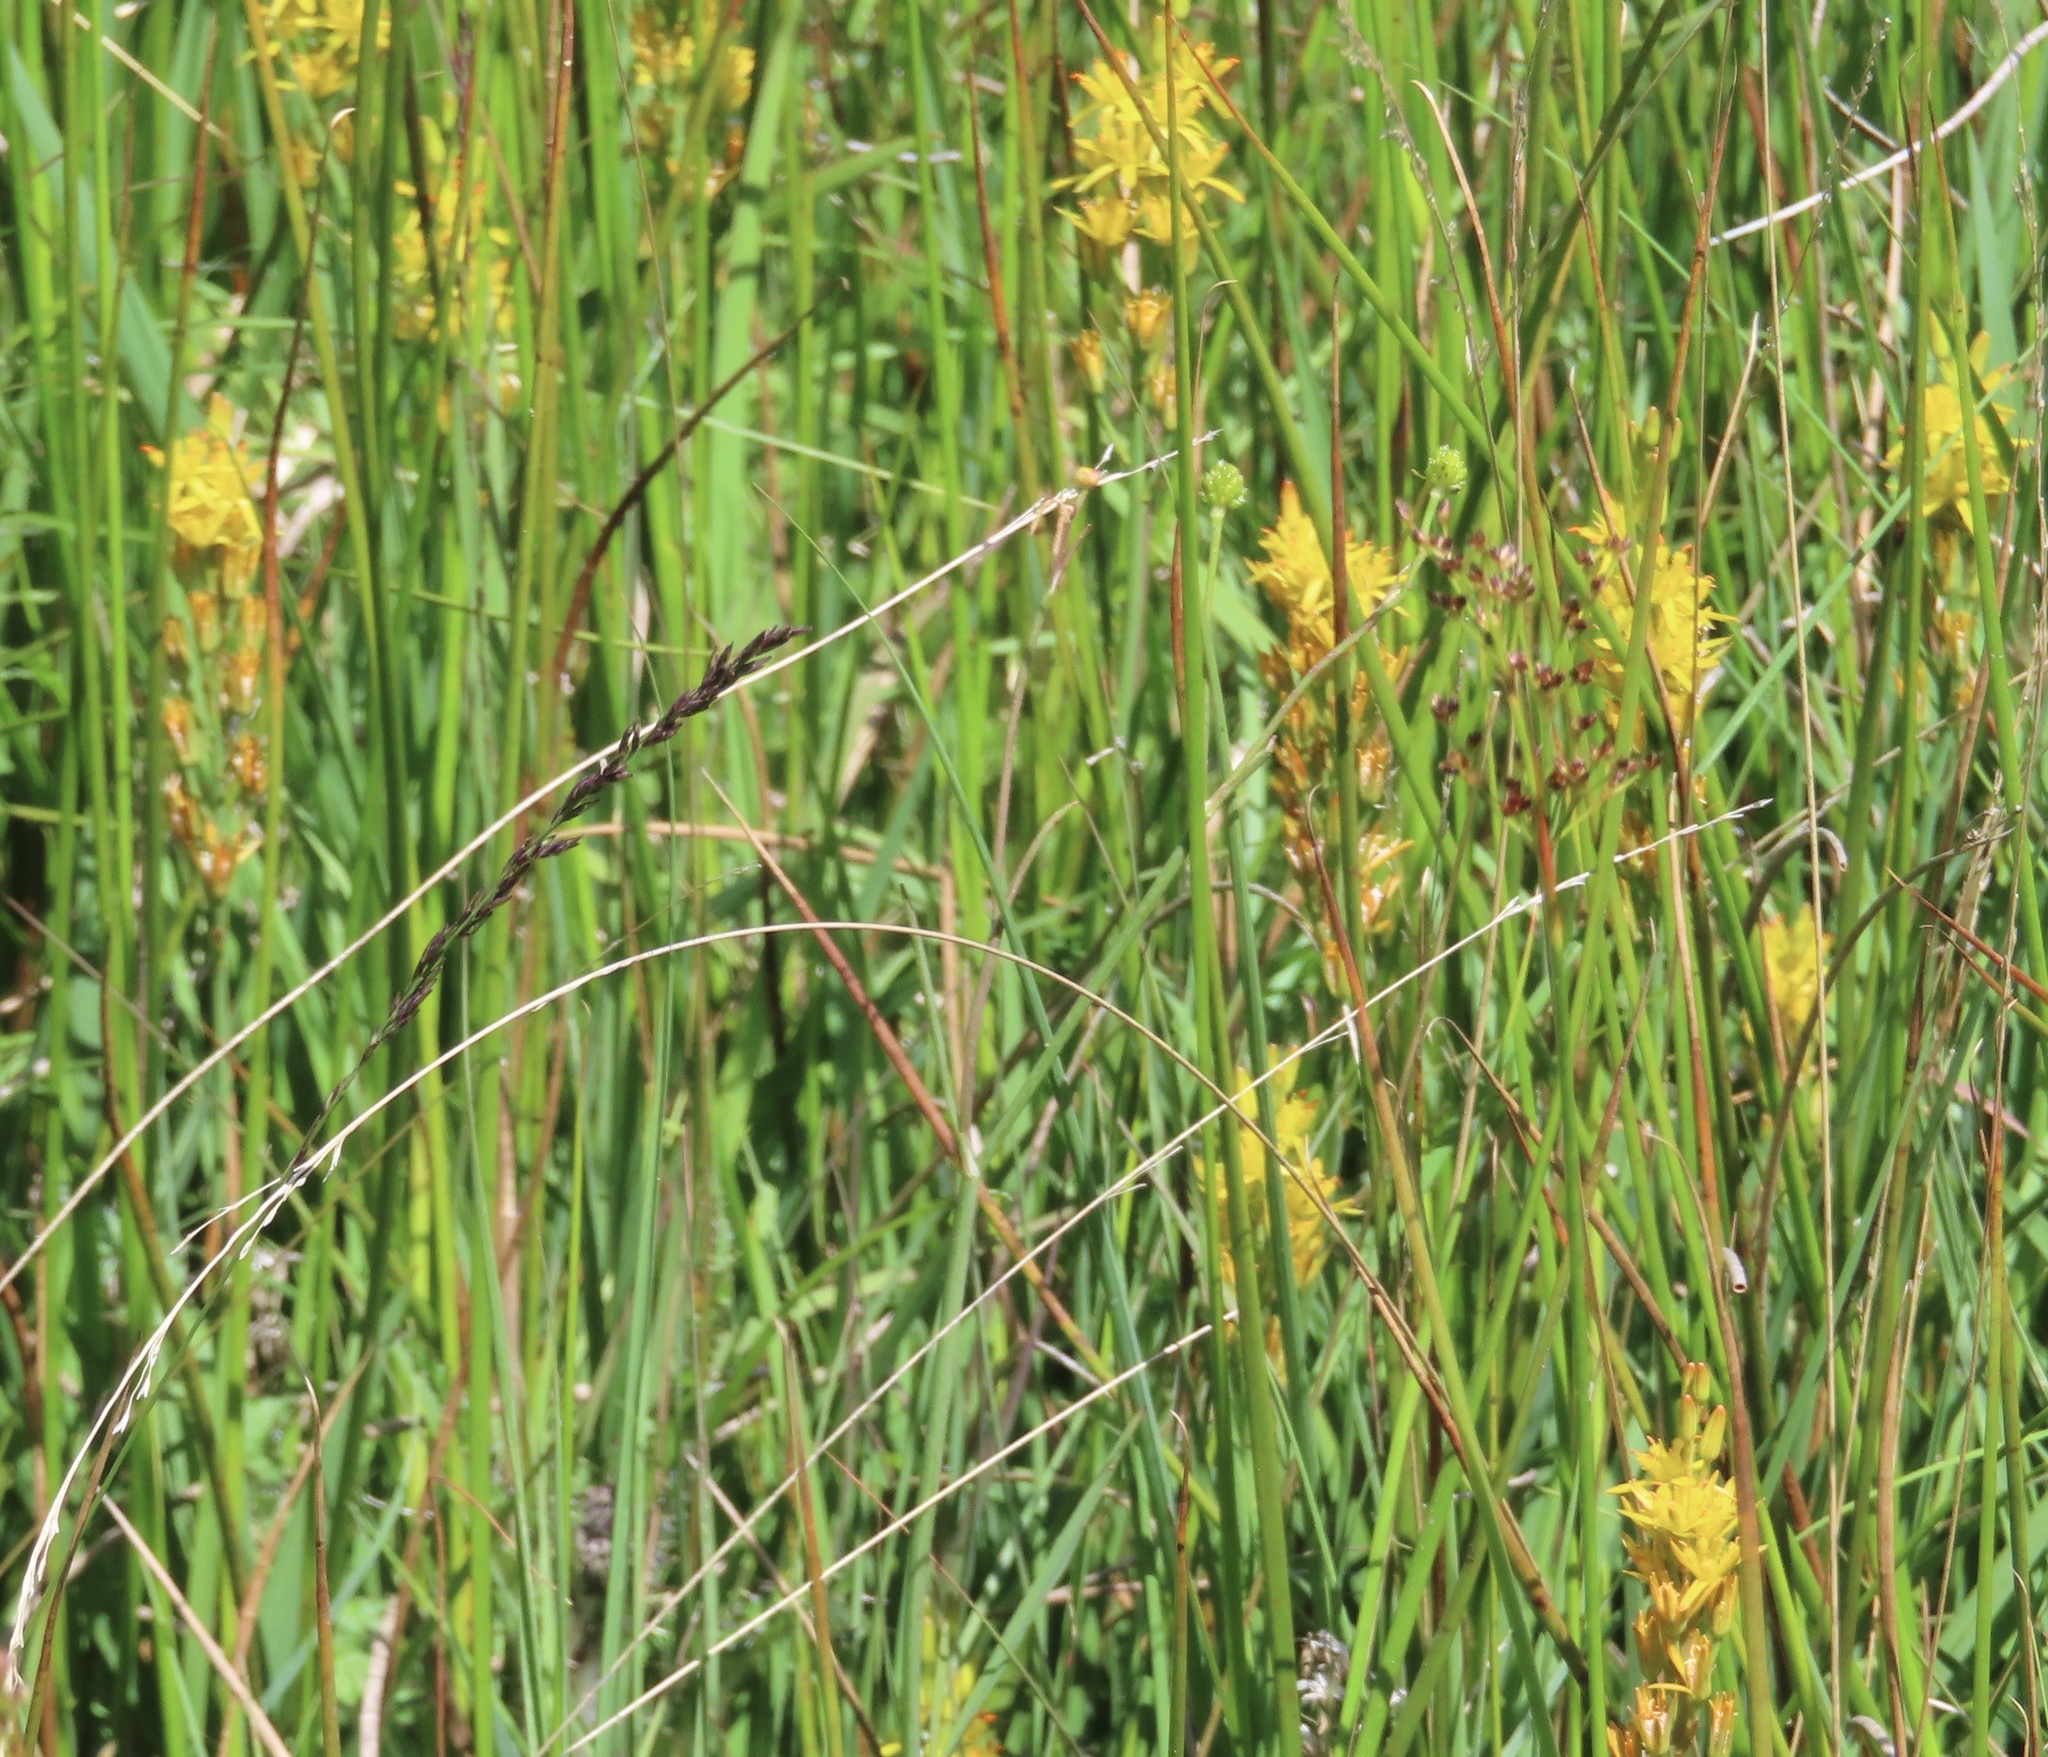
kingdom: Plantae
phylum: Tracheophyta
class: Liliopsida
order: Dioscoreales
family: Nartheciaceae
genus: Narthecium
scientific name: Narthecium ossifragum
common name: Bog asphodel
